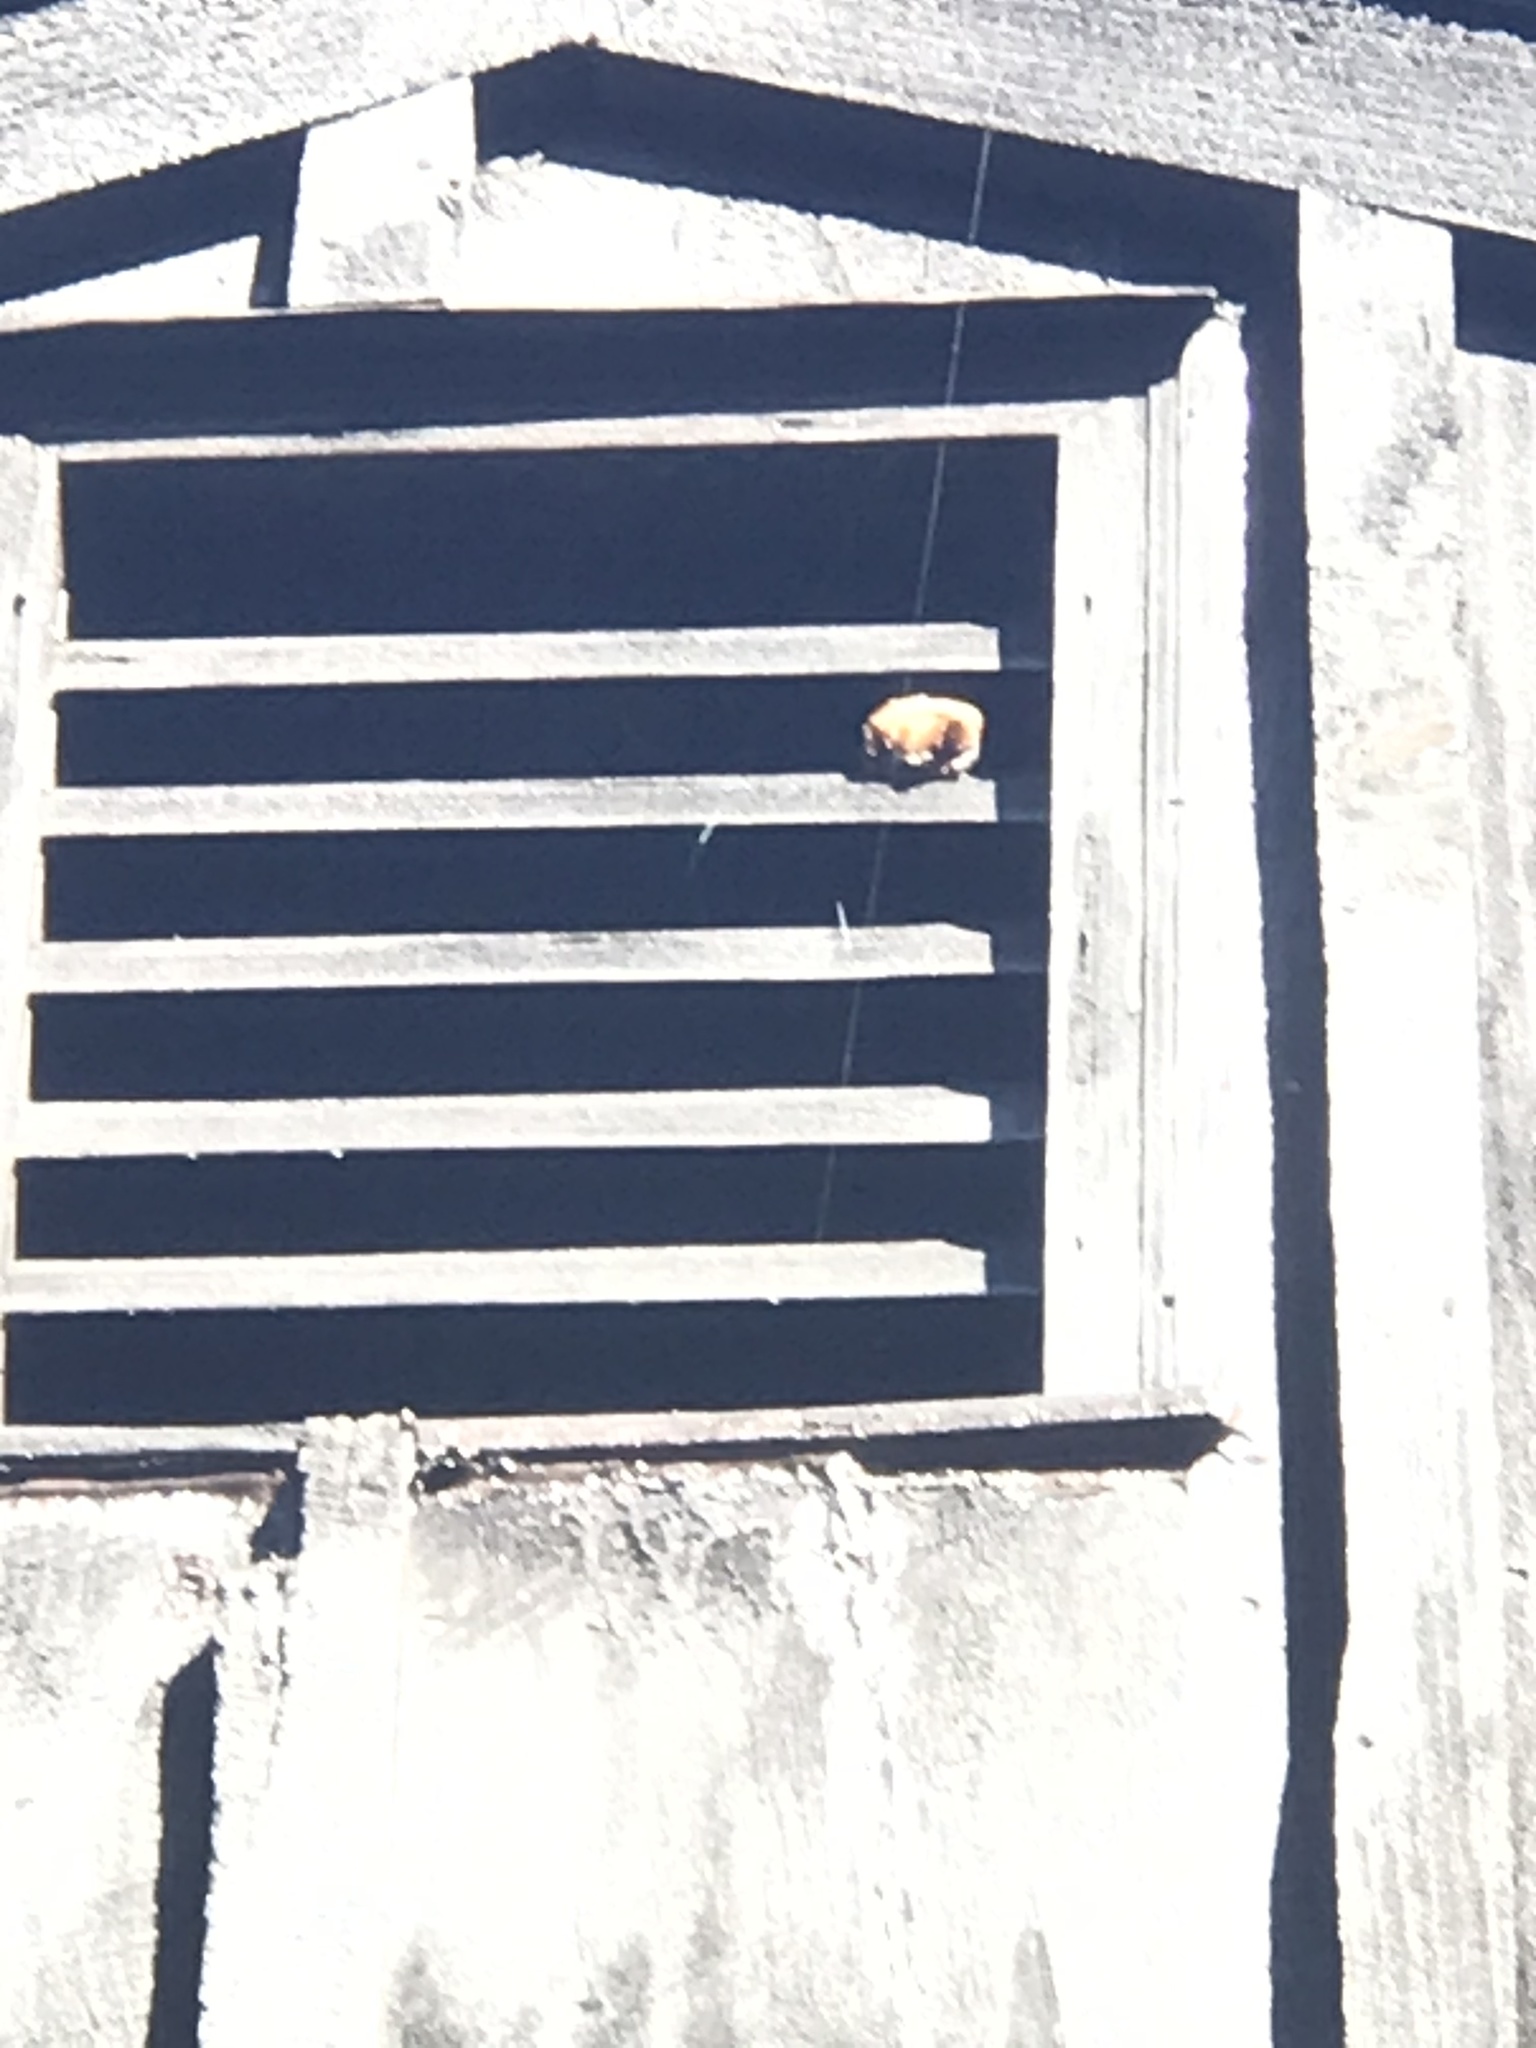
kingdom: Animalia
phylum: Chordata
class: Mammalia
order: Chiroptera
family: Vespertilionidae
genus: Eptesicus
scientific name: Eptesicus fuscus
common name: Big brown bat
